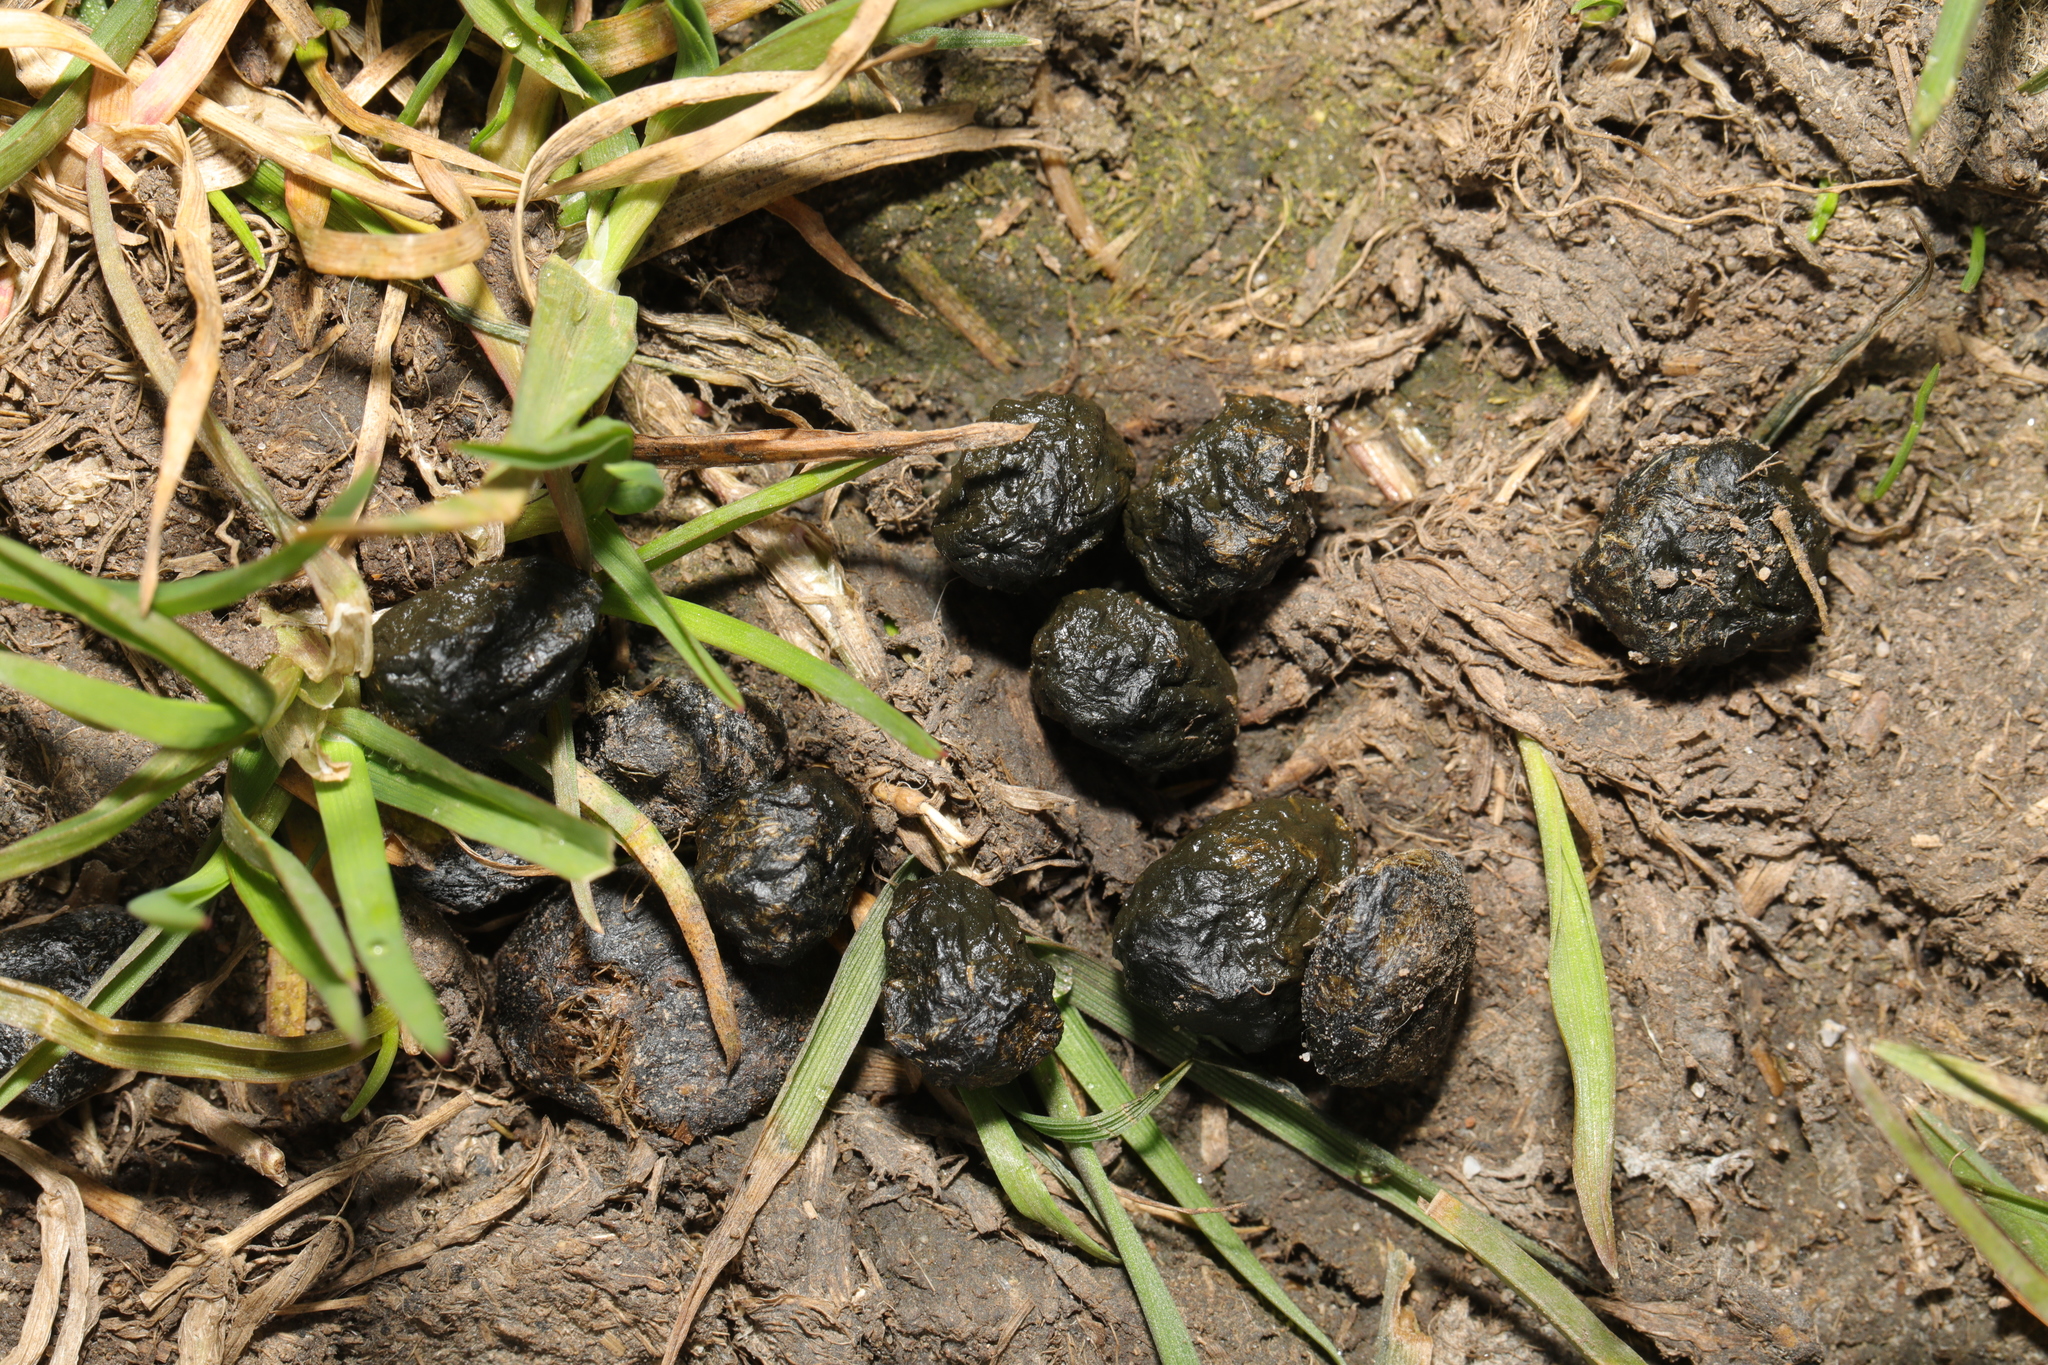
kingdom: Animalia
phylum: Chordata
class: Mammalia
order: Lagomorpha
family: Leporidae
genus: Oryctolagus
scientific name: Oryctolagus cuniculus
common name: European rabbit
